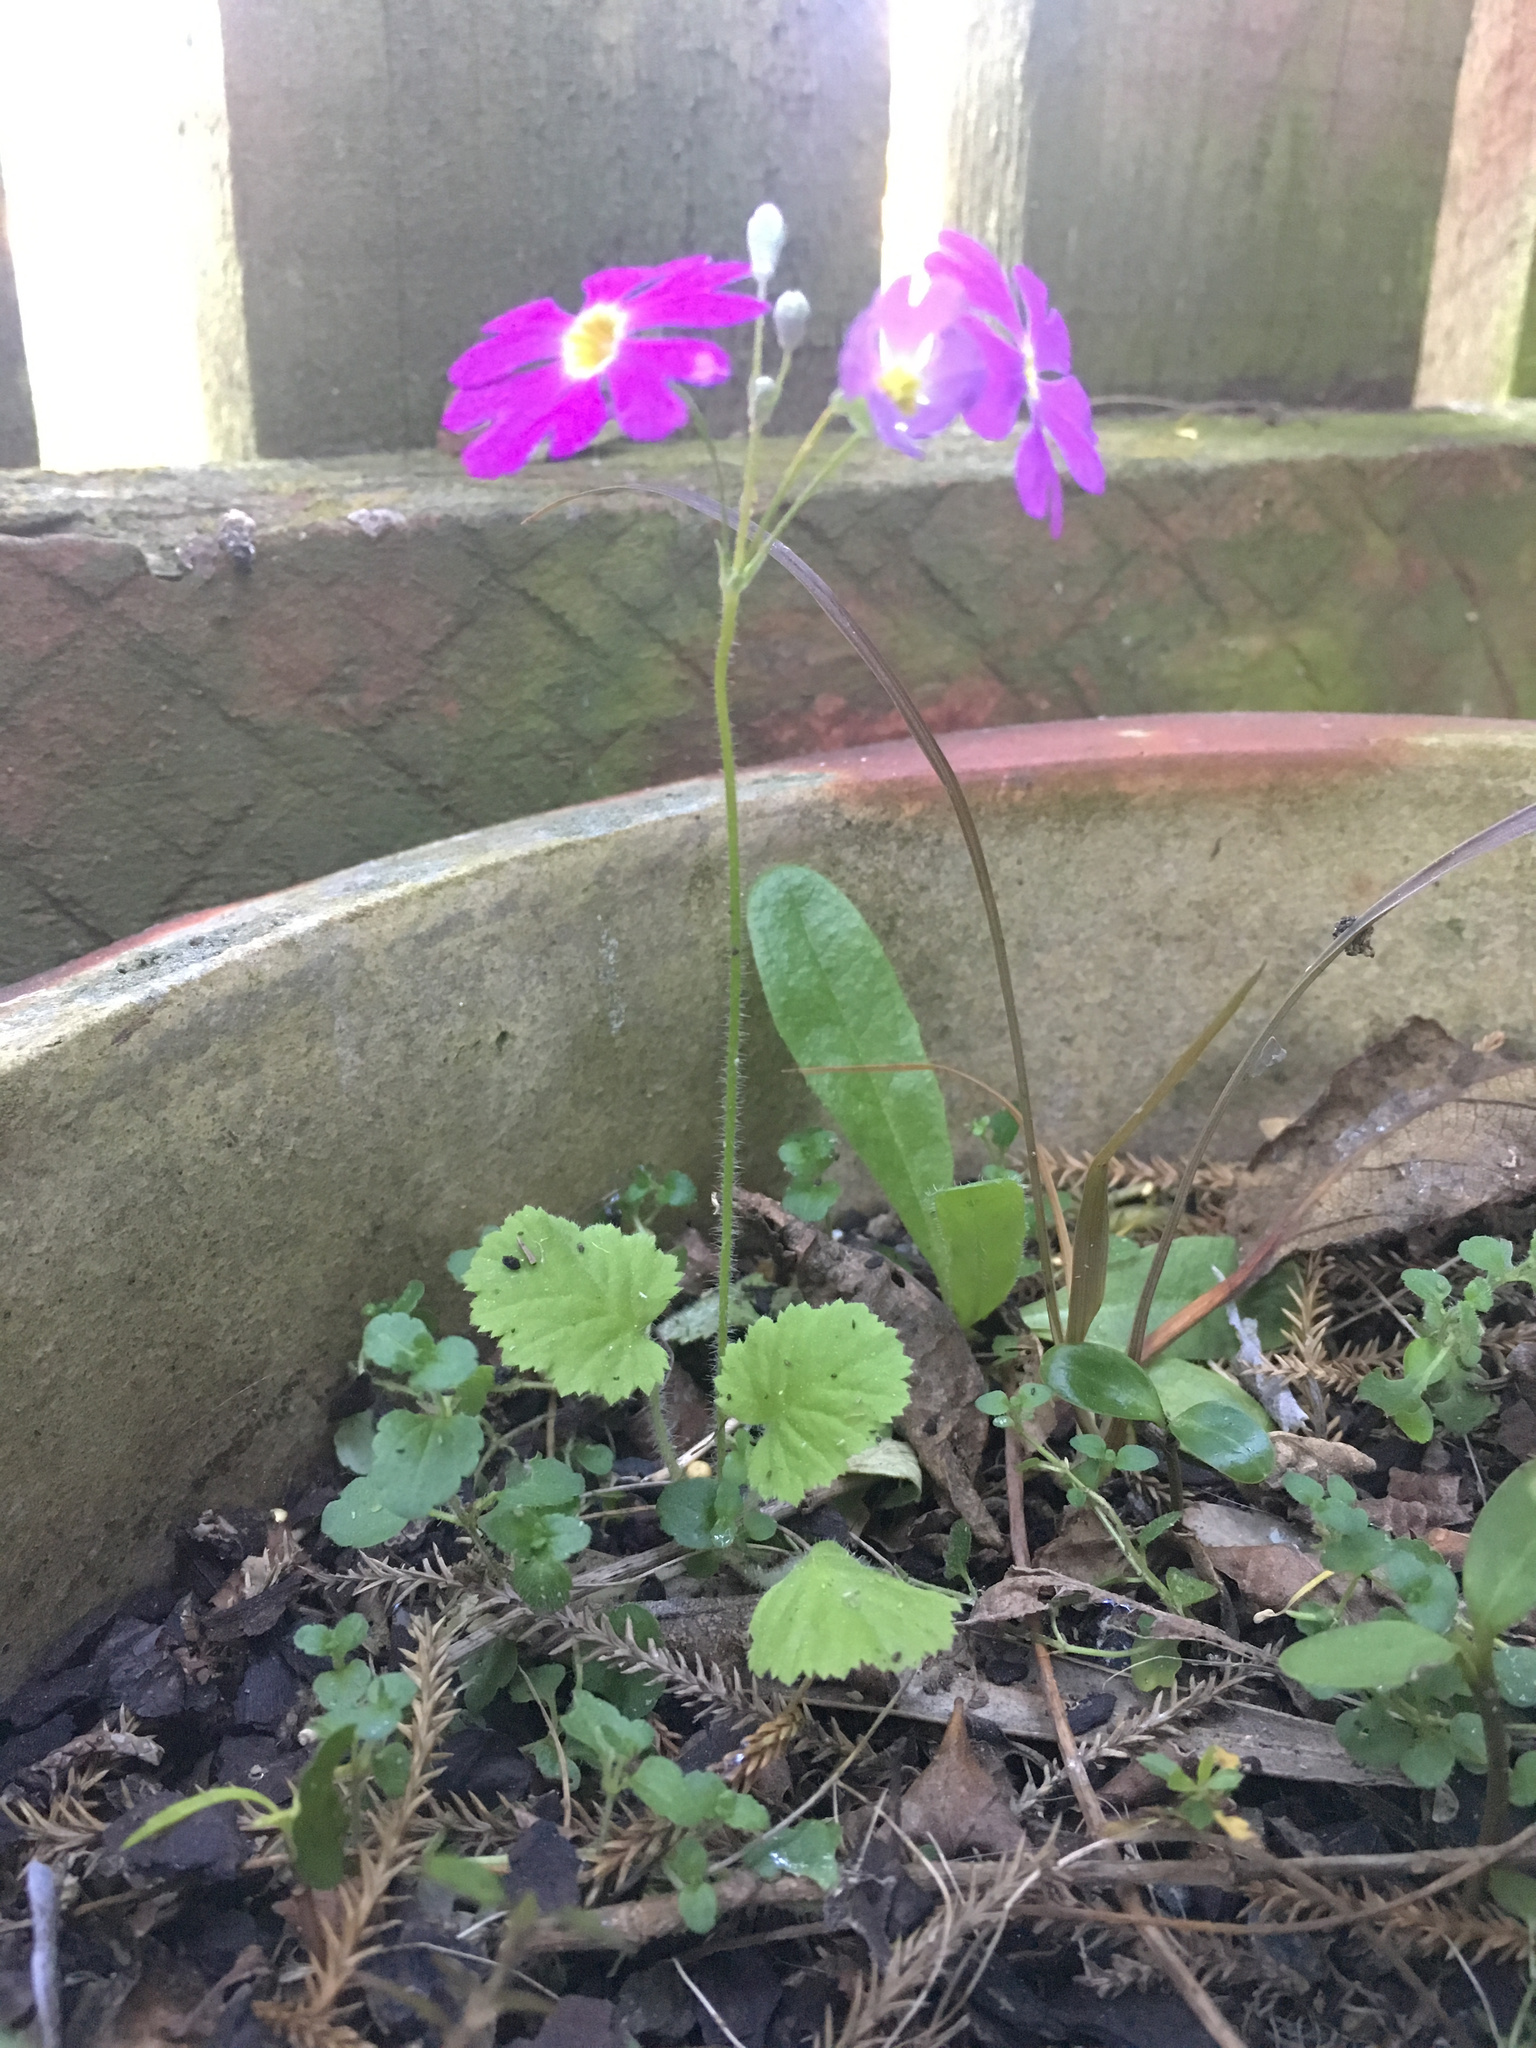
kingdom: Plantae
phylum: Tracheophyta
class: Magnoliopsida
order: Ericales
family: Primulaceae
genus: Primula
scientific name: Primula malacoides
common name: Baby primrose
